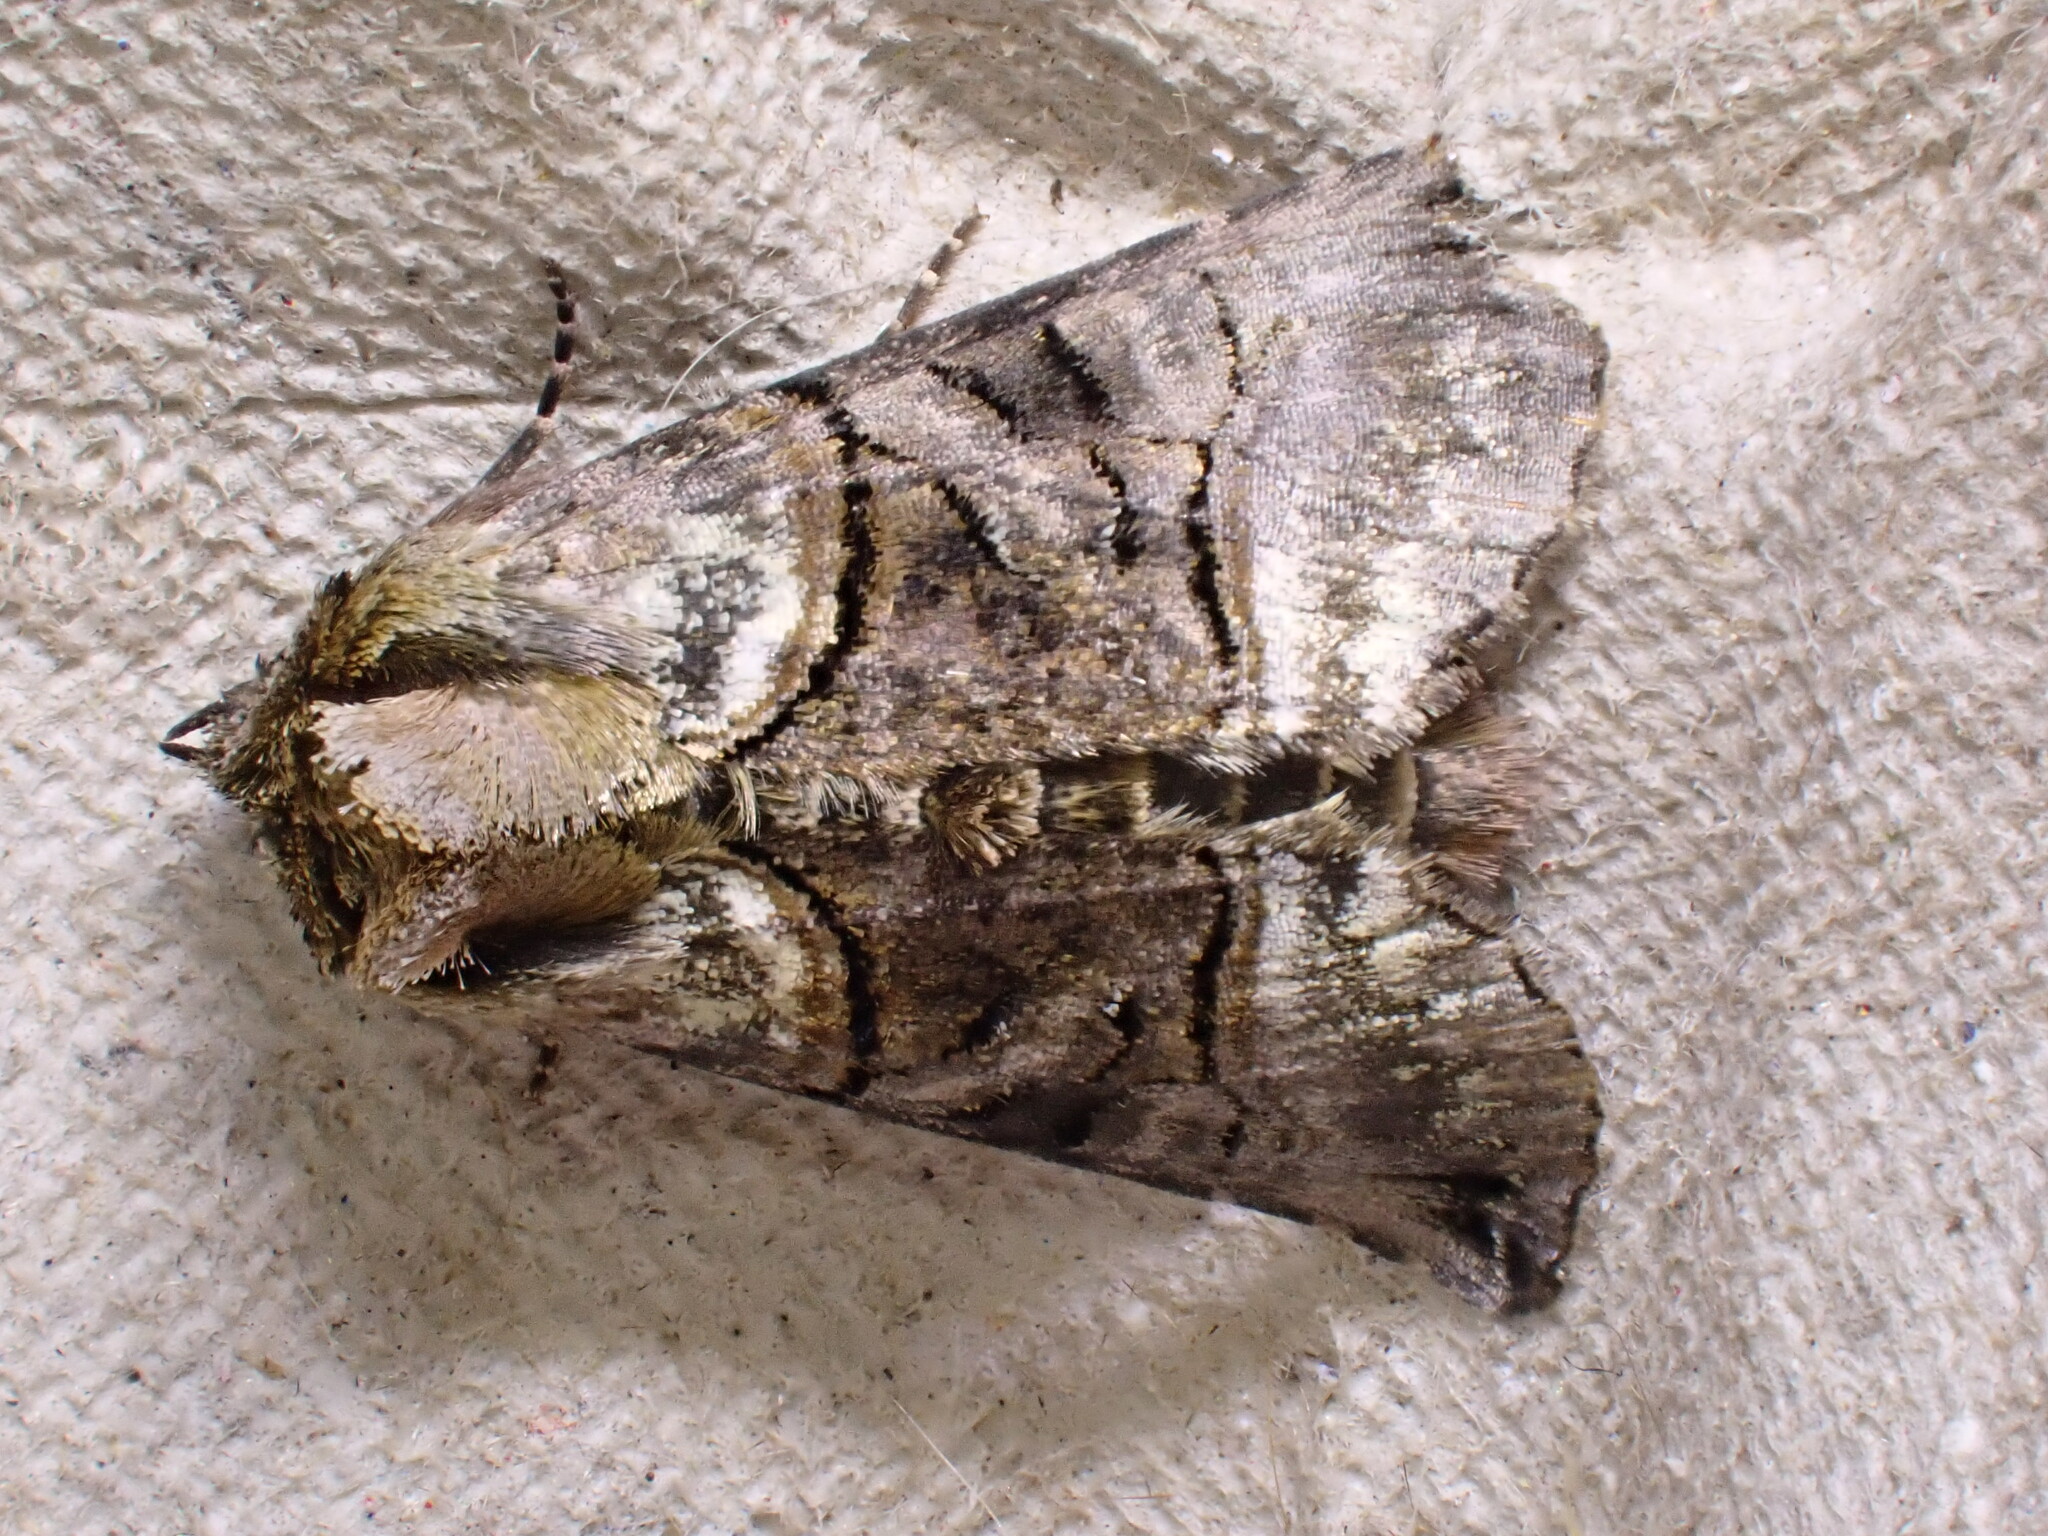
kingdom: Animalia
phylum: Arthropoda
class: Insecta
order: Lepidoptera
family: Noctuidae
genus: Abrostola
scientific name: Abrostola tripartita
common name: Spectacle
